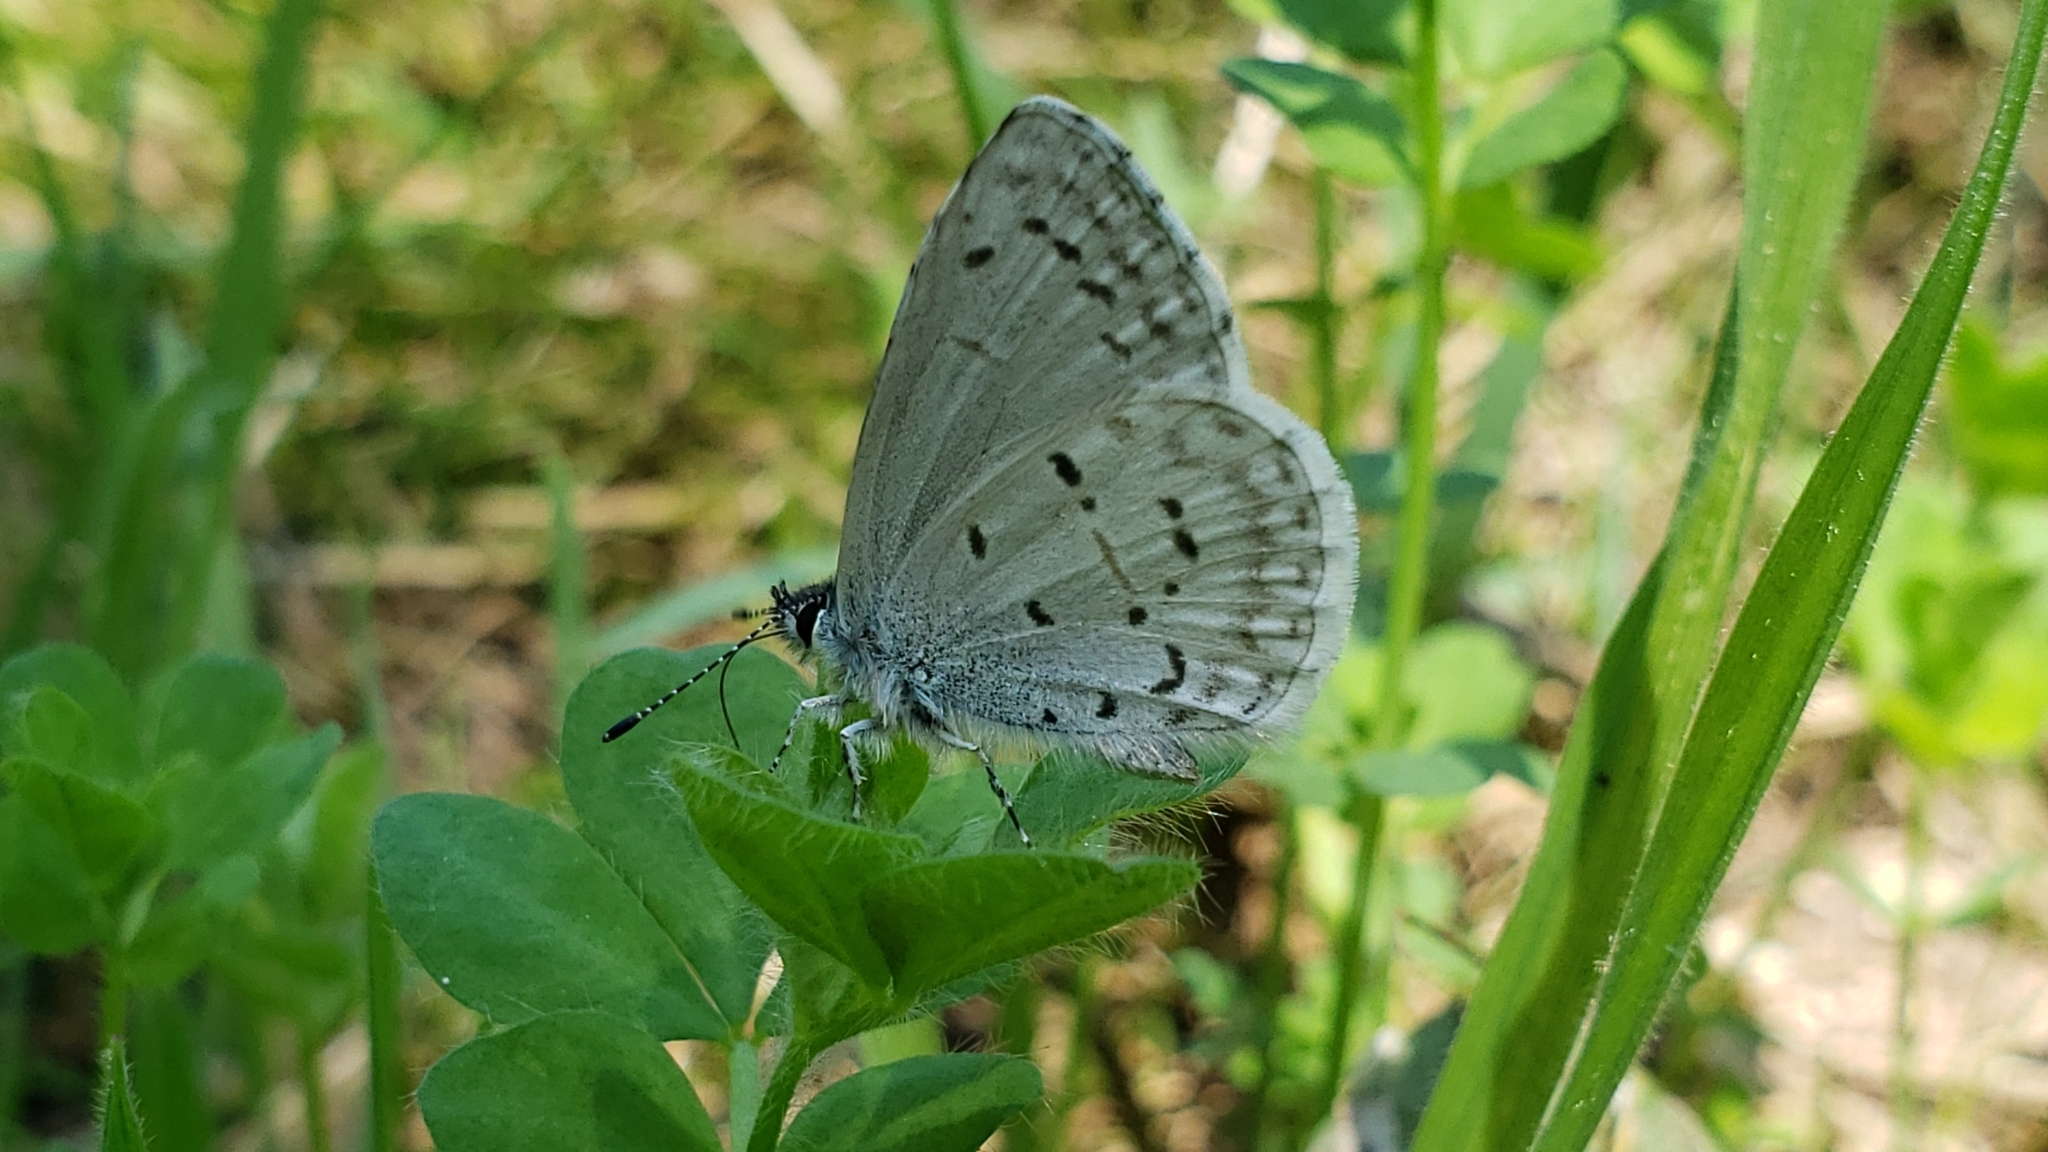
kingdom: Animalia
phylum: Arthropoda
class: Insecta
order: Lepidoptera
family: Lycaenidae
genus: Celastrina
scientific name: Celastrina ladon
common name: Spring azure
